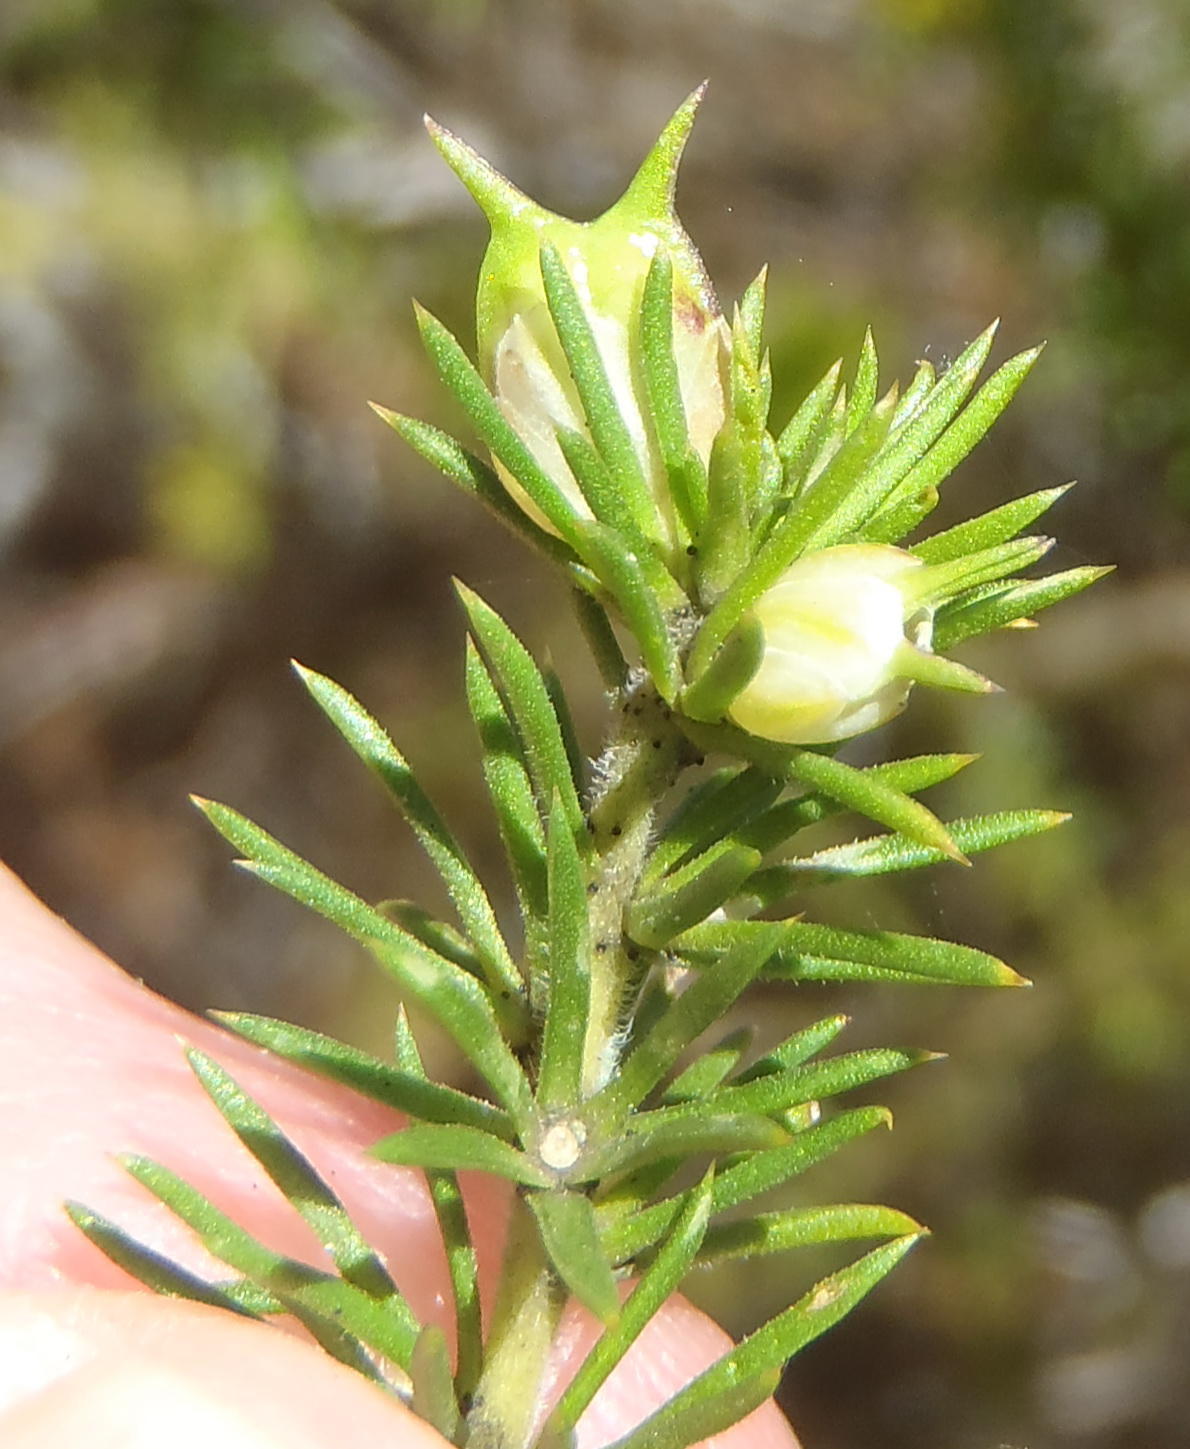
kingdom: Plantae
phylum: Tracheophyta
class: Magnoliopsida
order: Sapindales
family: Rutaceae
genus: Coleonema
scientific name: Coleonema album
